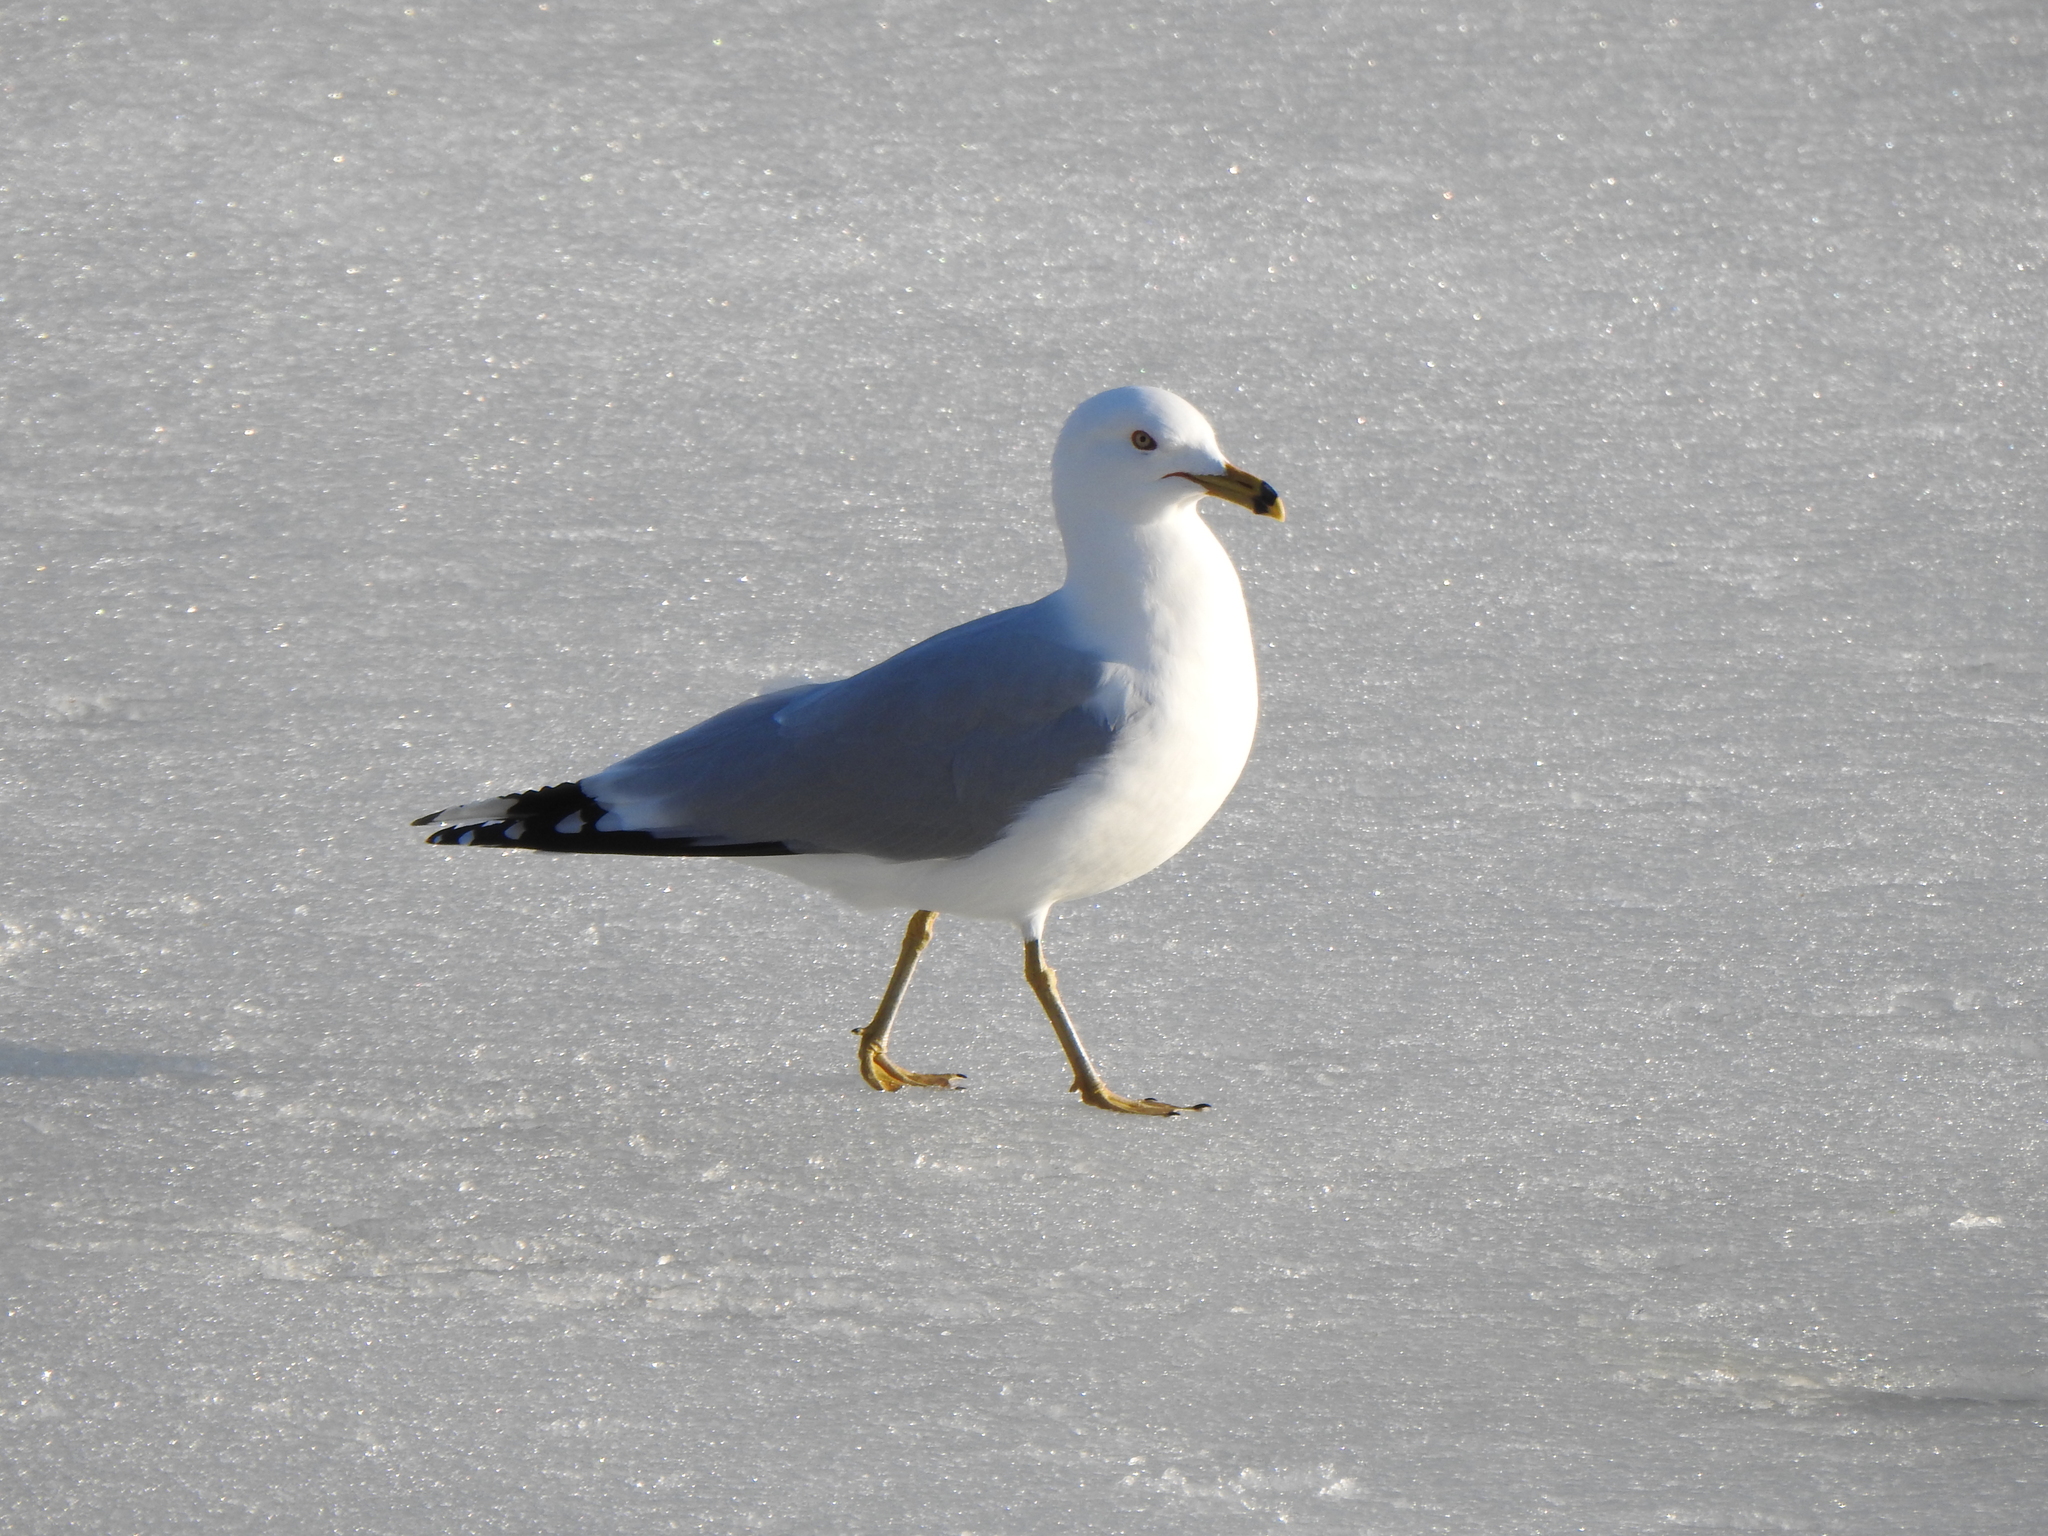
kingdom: Animalia
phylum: Chordata
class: Aves
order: Charadriiformes
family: Laridae
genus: Larus
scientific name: Larus delawarensis
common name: Ring-billed gull
